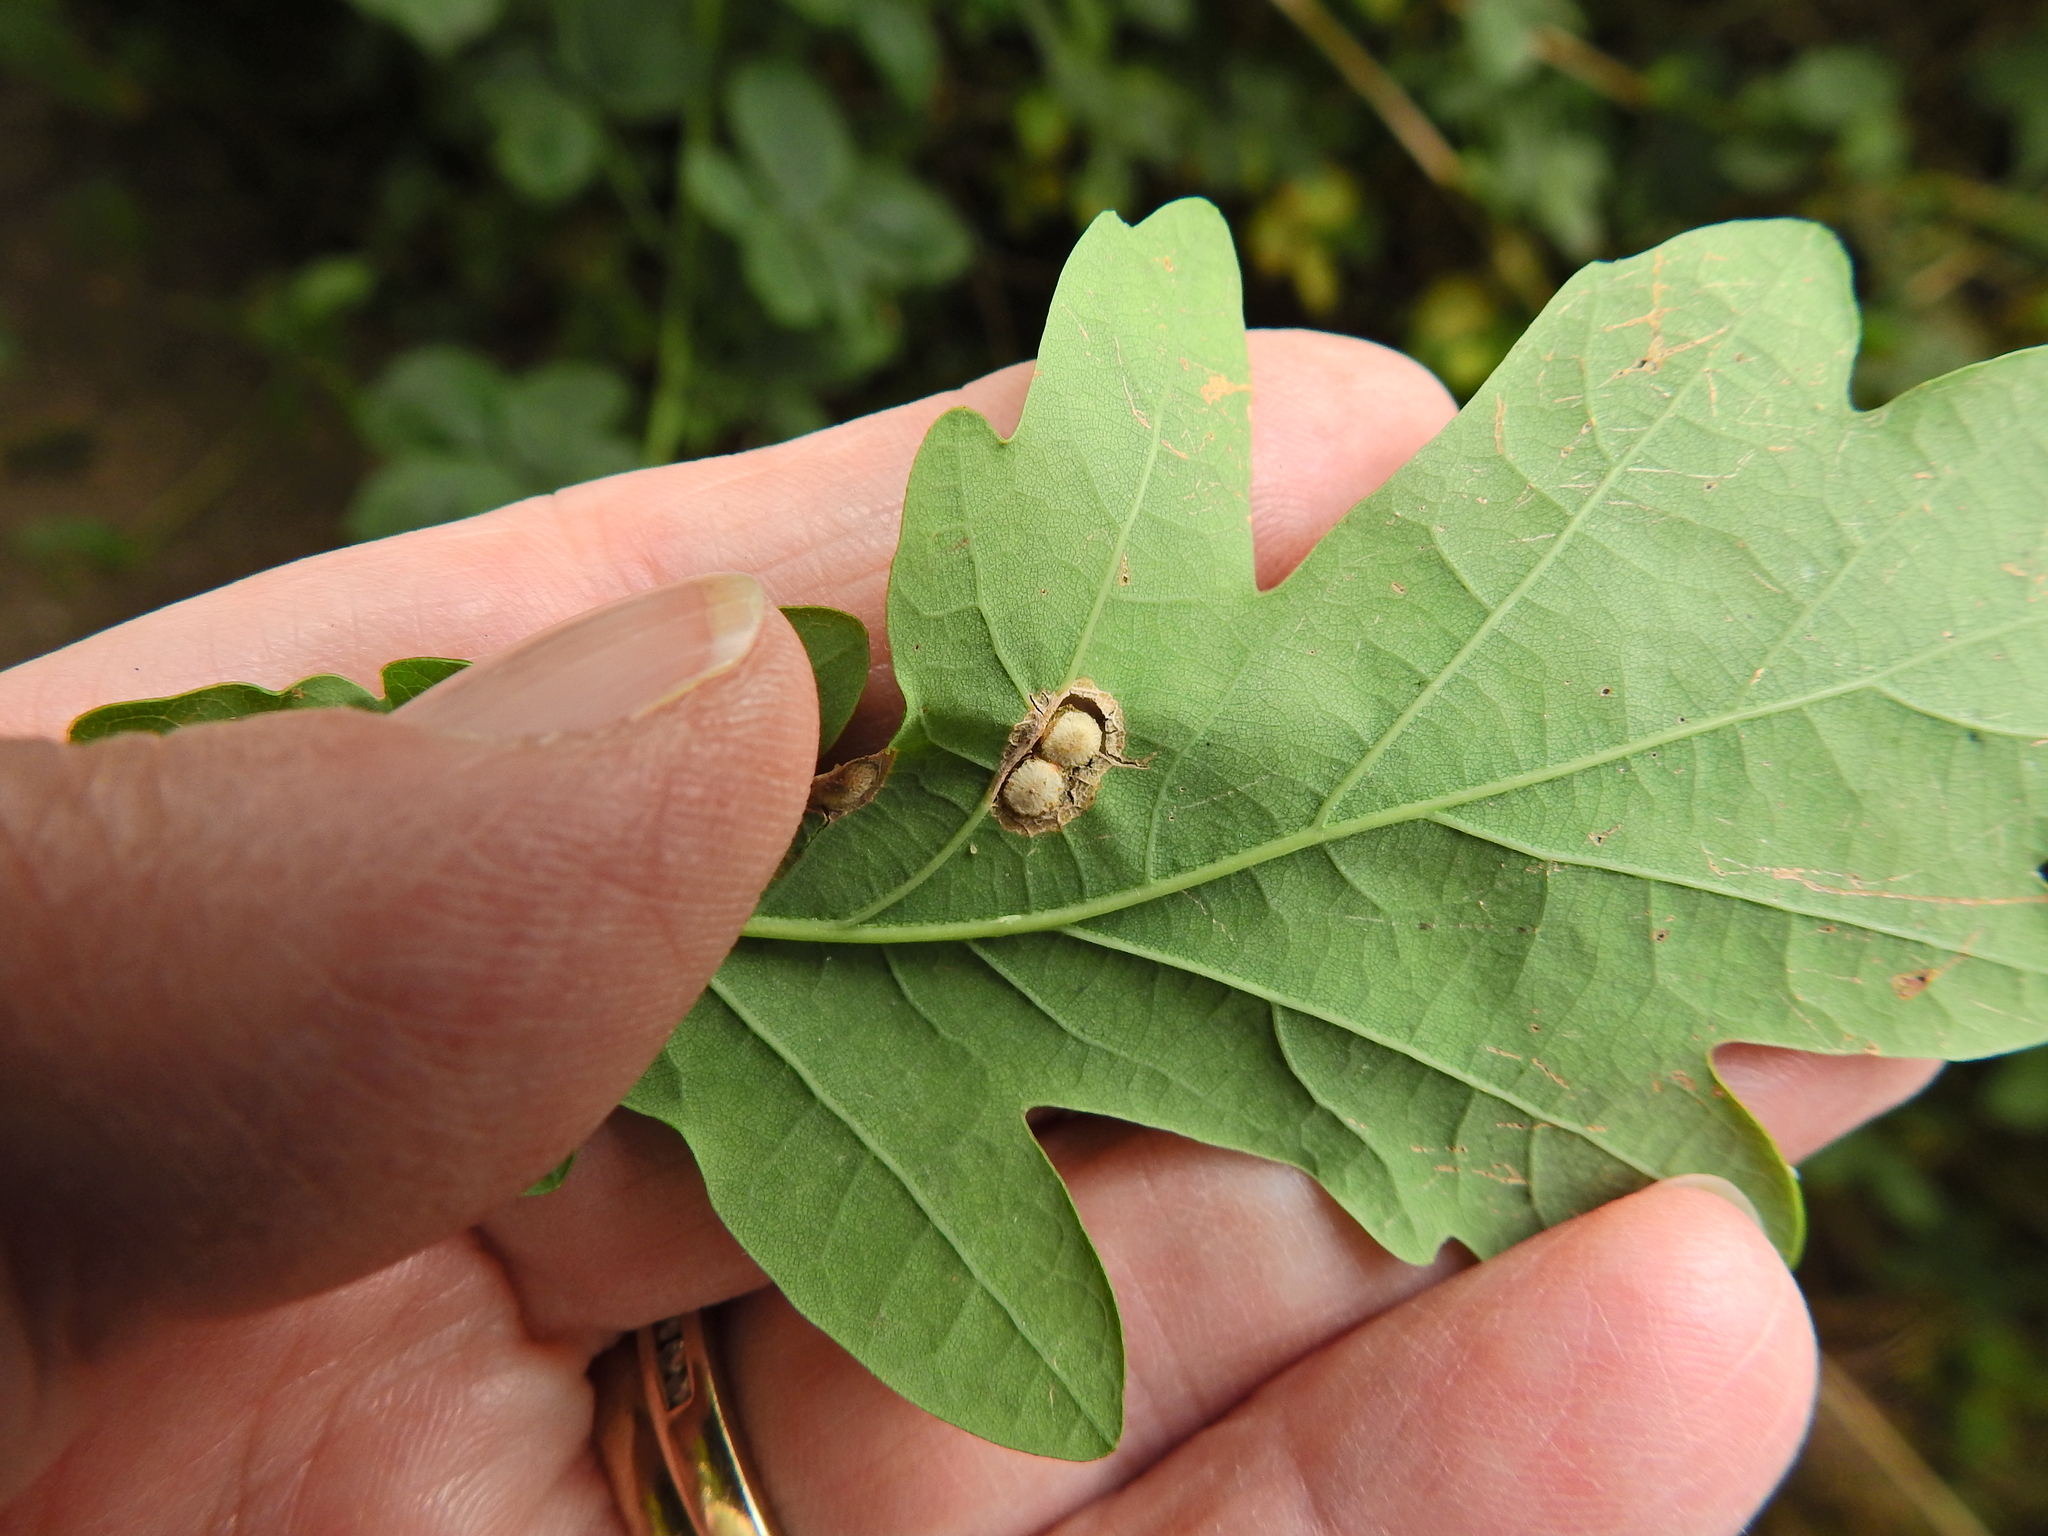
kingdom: Animalia
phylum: Arthropoda
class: Insecta
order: Hymenoptera
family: Cynipidae
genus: Neuroterus
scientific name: Neuroterus numismalis
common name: Silk-button spangle gall
